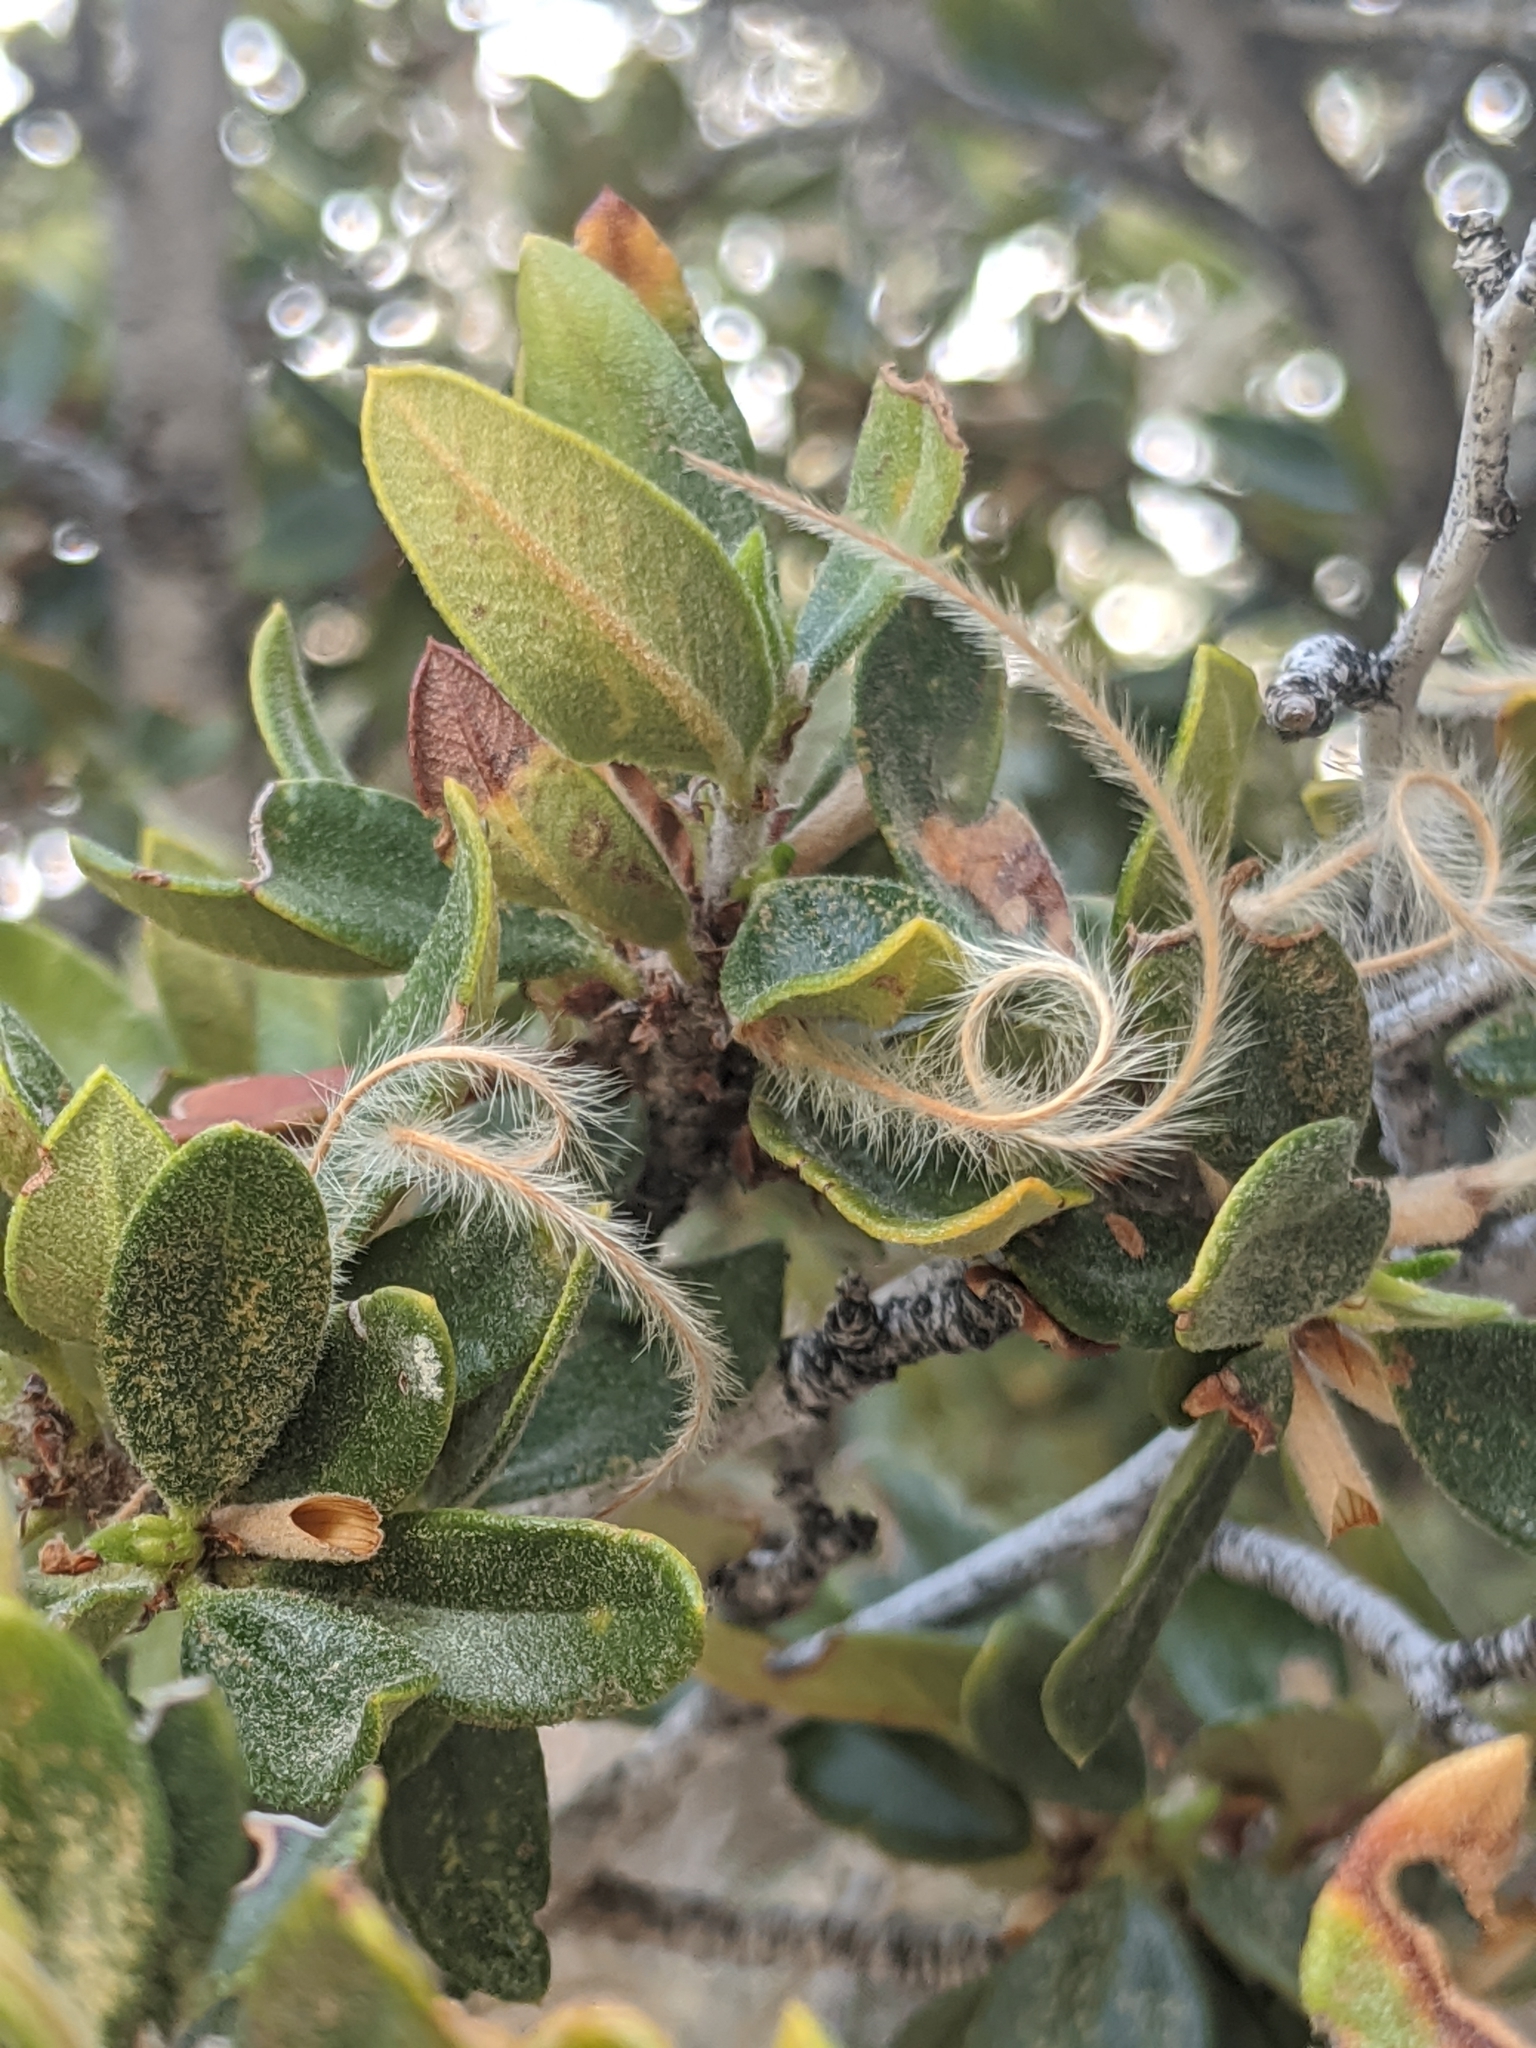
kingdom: Plantae
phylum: Tracheophyta
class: Magnoliopsida
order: Rosales
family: Rosaceae
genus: Cercocarpus
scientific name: Cercocarpus ledifolius
